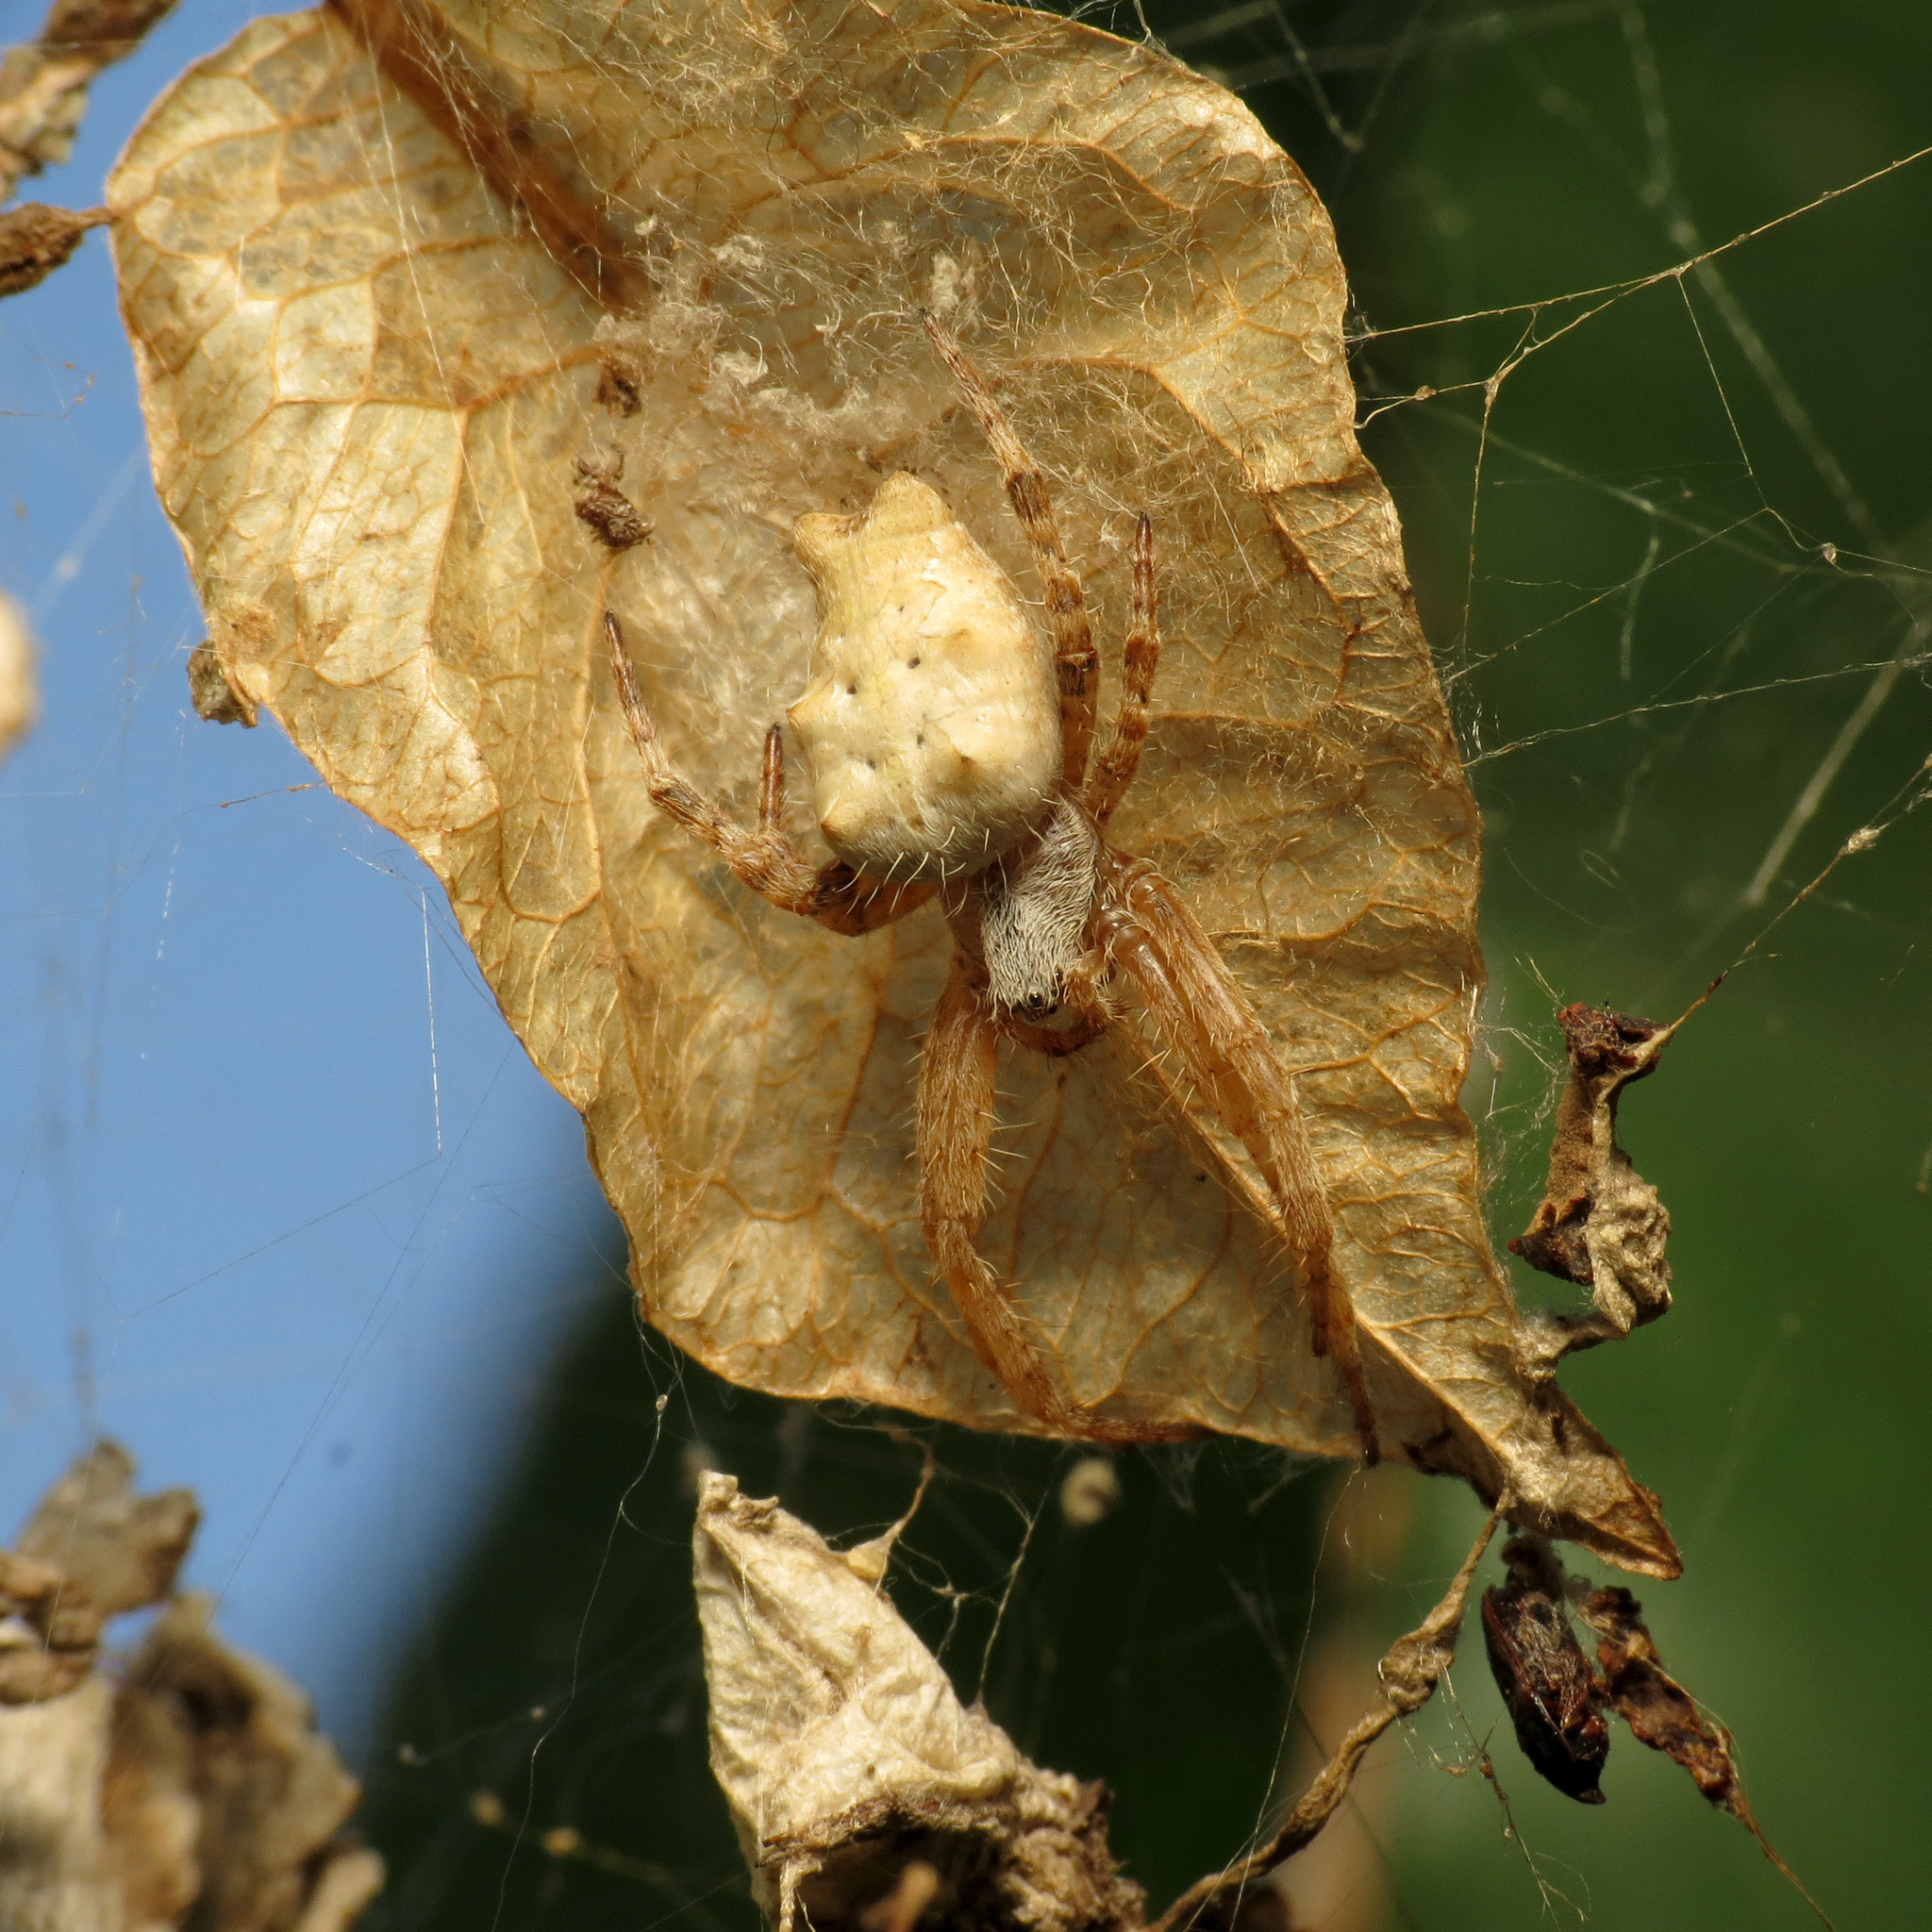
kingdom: Animalia
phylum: Arthropoda
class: Arachnida
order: Araneae
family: Araneidae
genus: Cyrtophora
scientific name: Cyrtophora citricola
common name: Orb weavers
